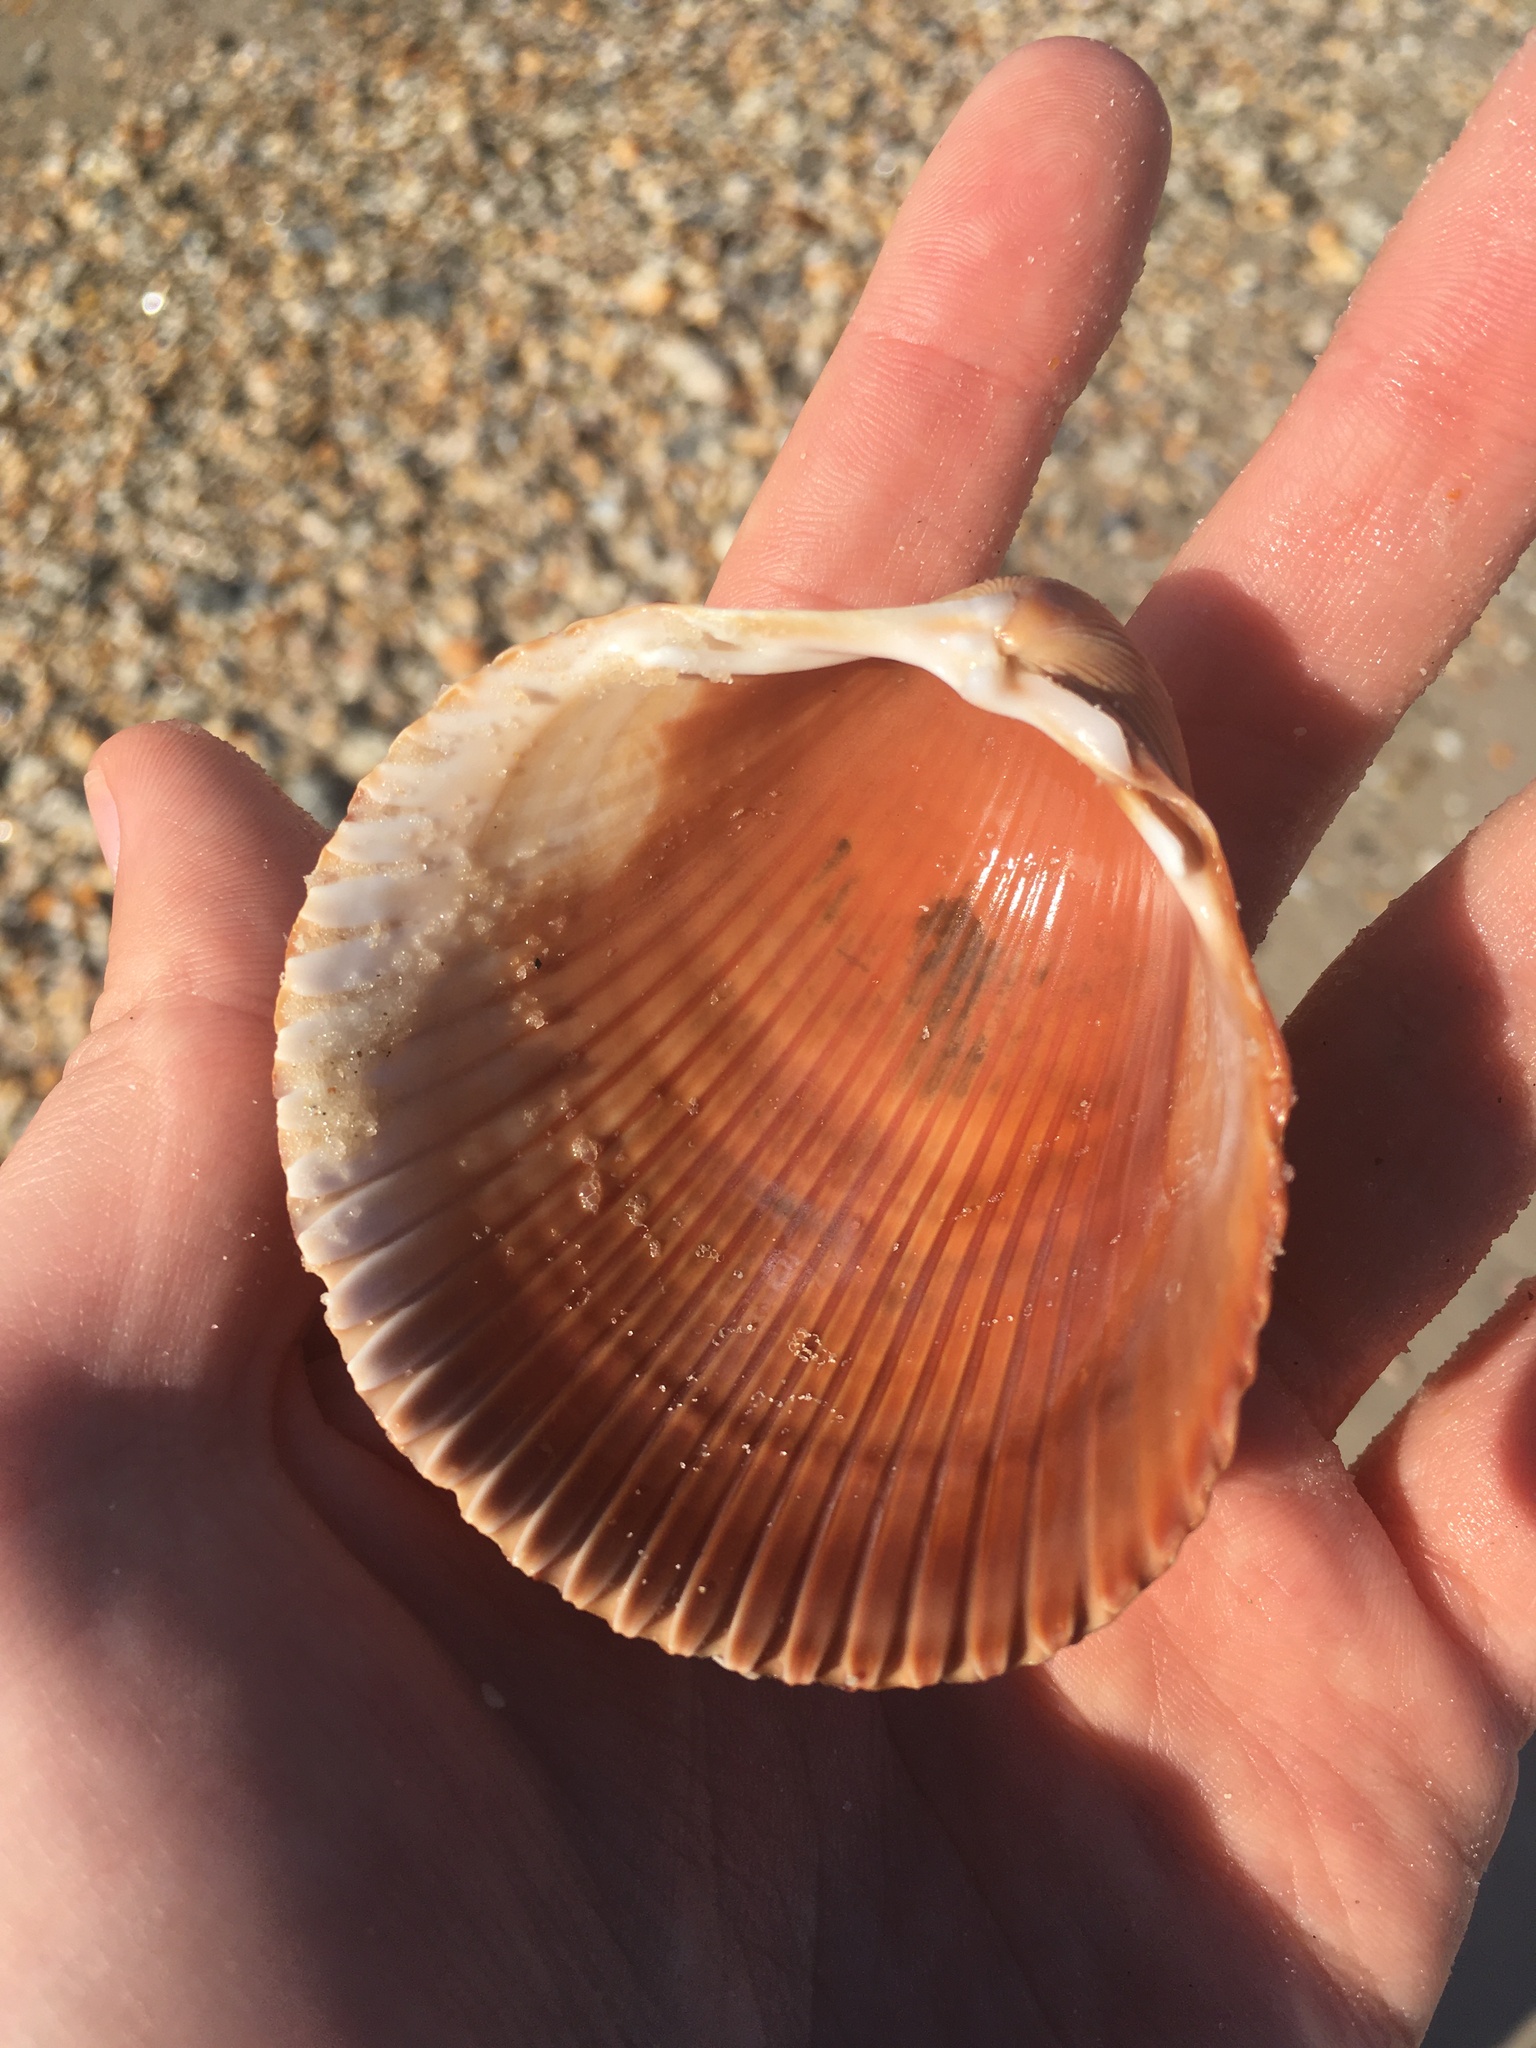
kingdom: Animalia
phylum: Mollusca
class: Bivalvia
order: Cardiida
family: Cardiidae
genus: Dinocardium
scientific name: Dinocardium robustum
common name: Atlantic giant cockle
